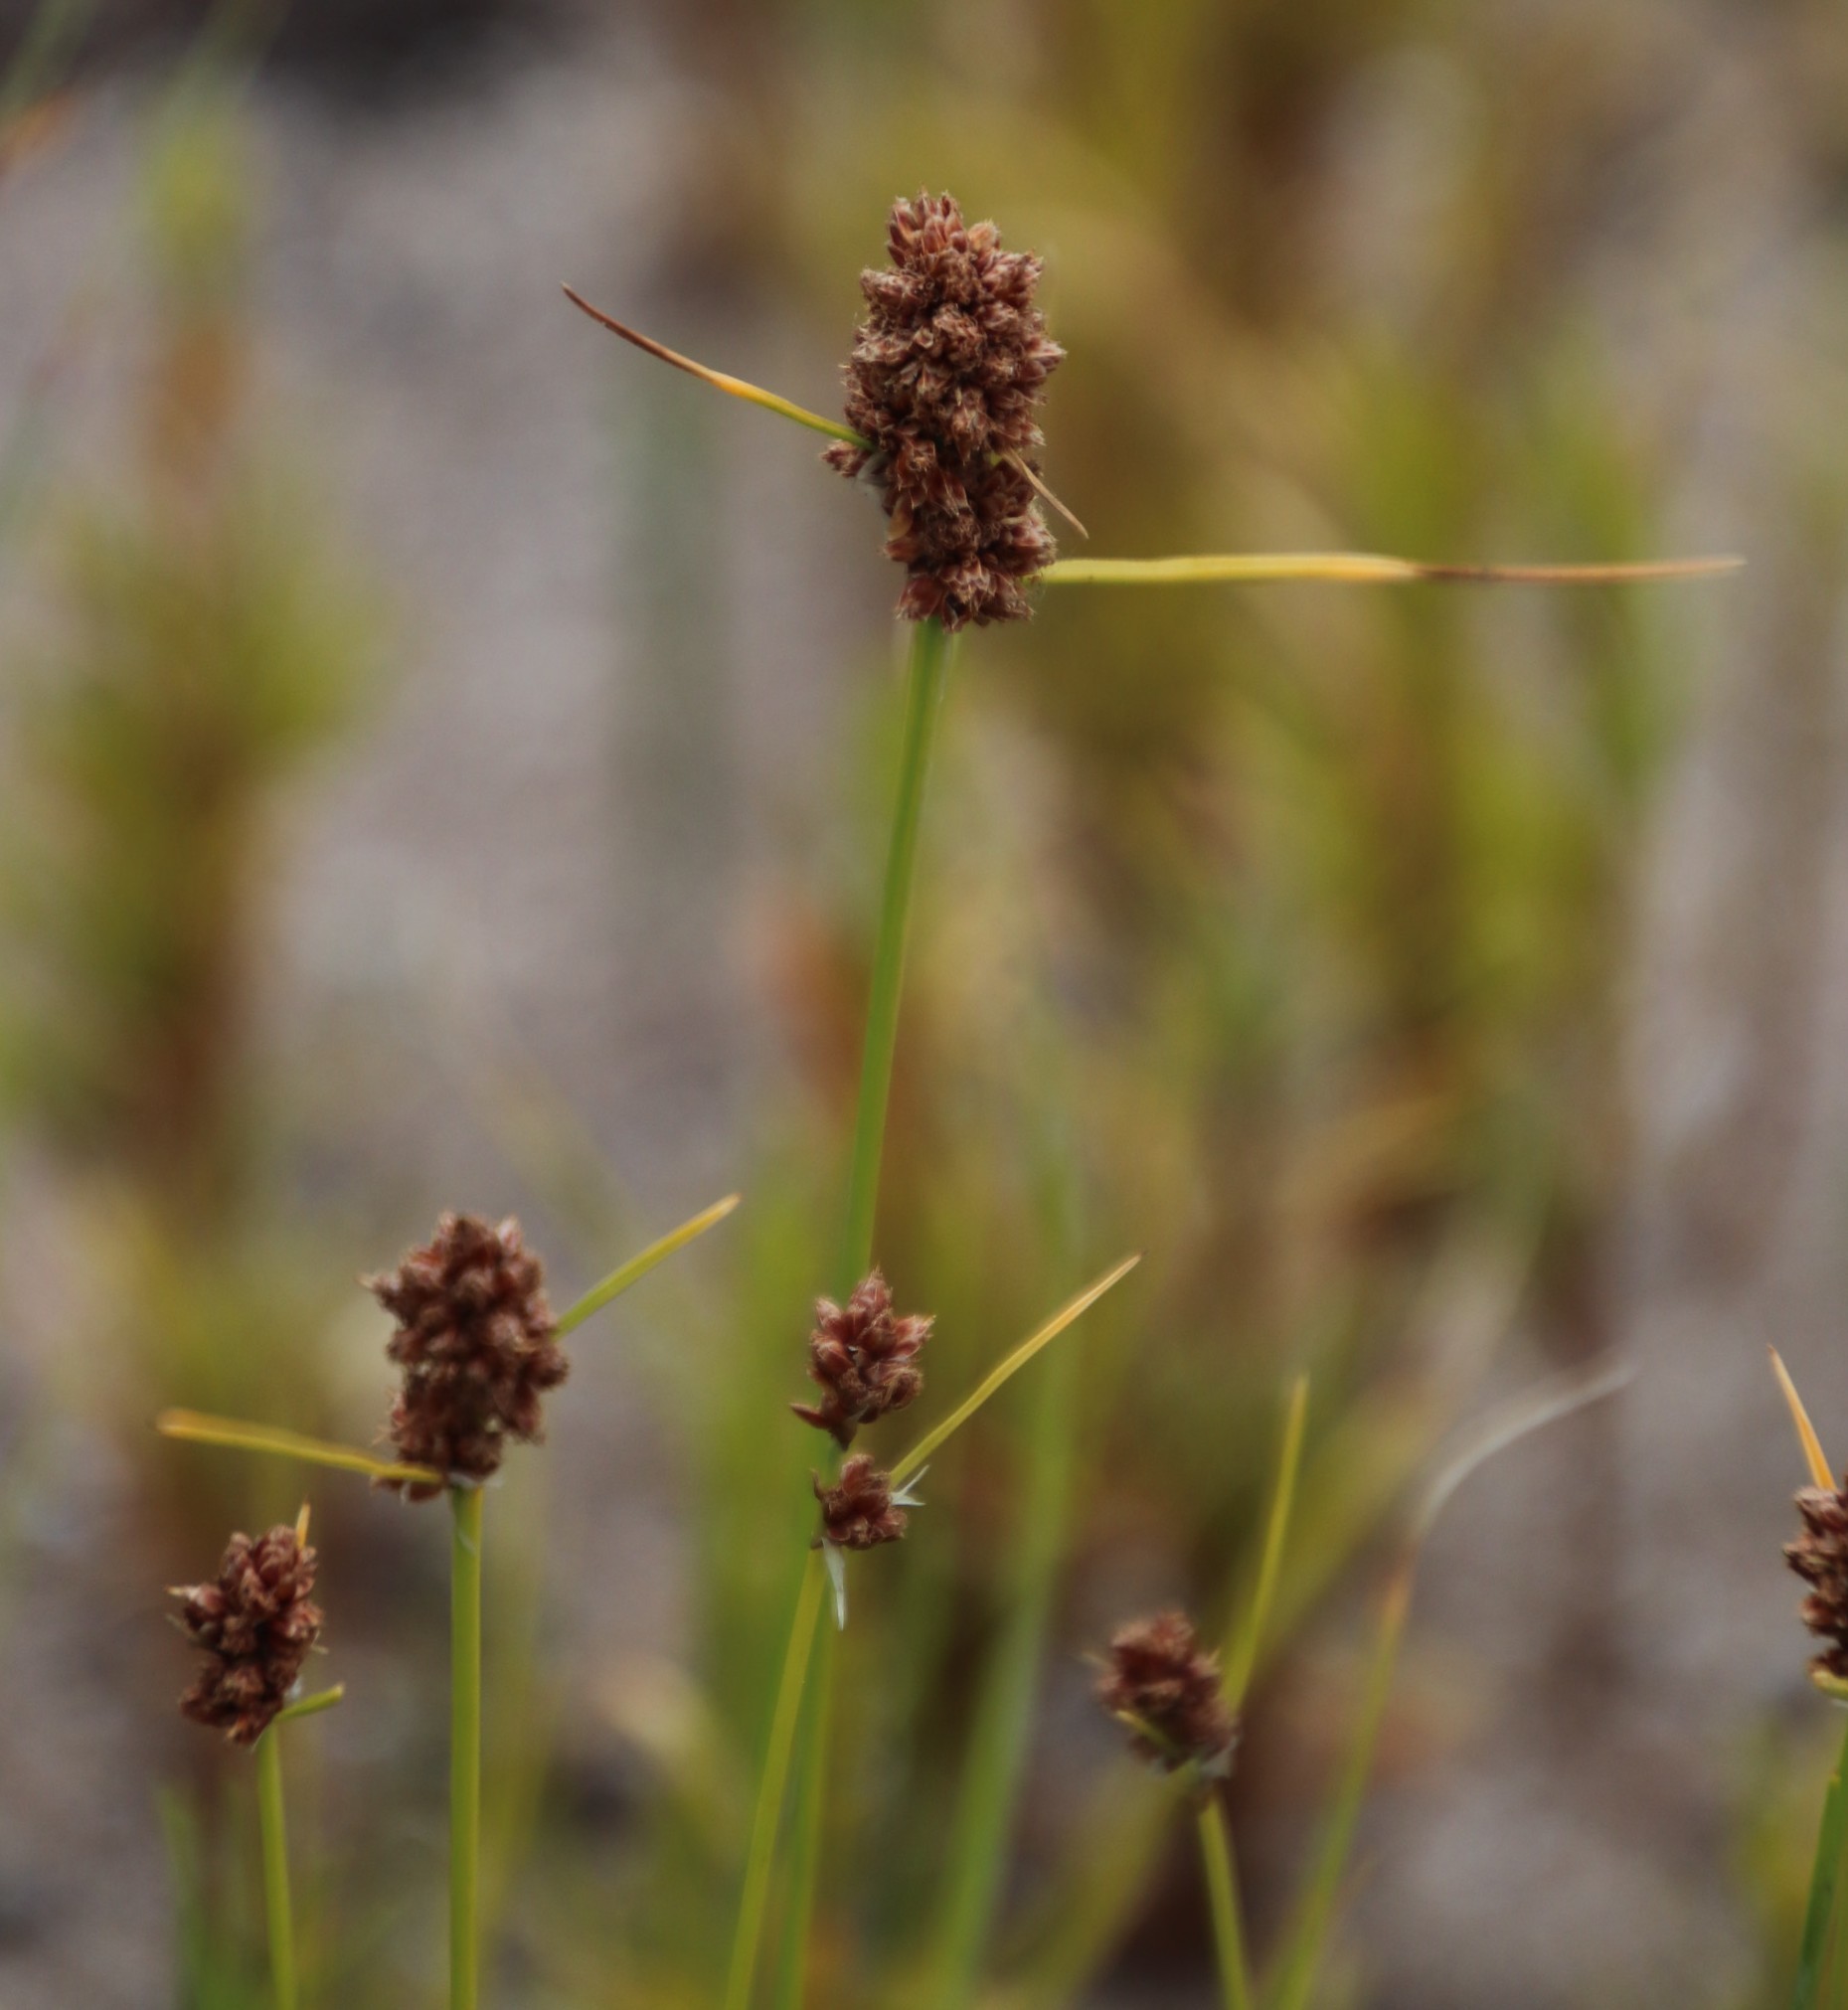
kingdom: Plantae
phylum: Tracheophyta
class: Liliopsida
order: Poales
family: Cyperaceae
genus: Ficinia
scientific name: Ficinia bulbosa
